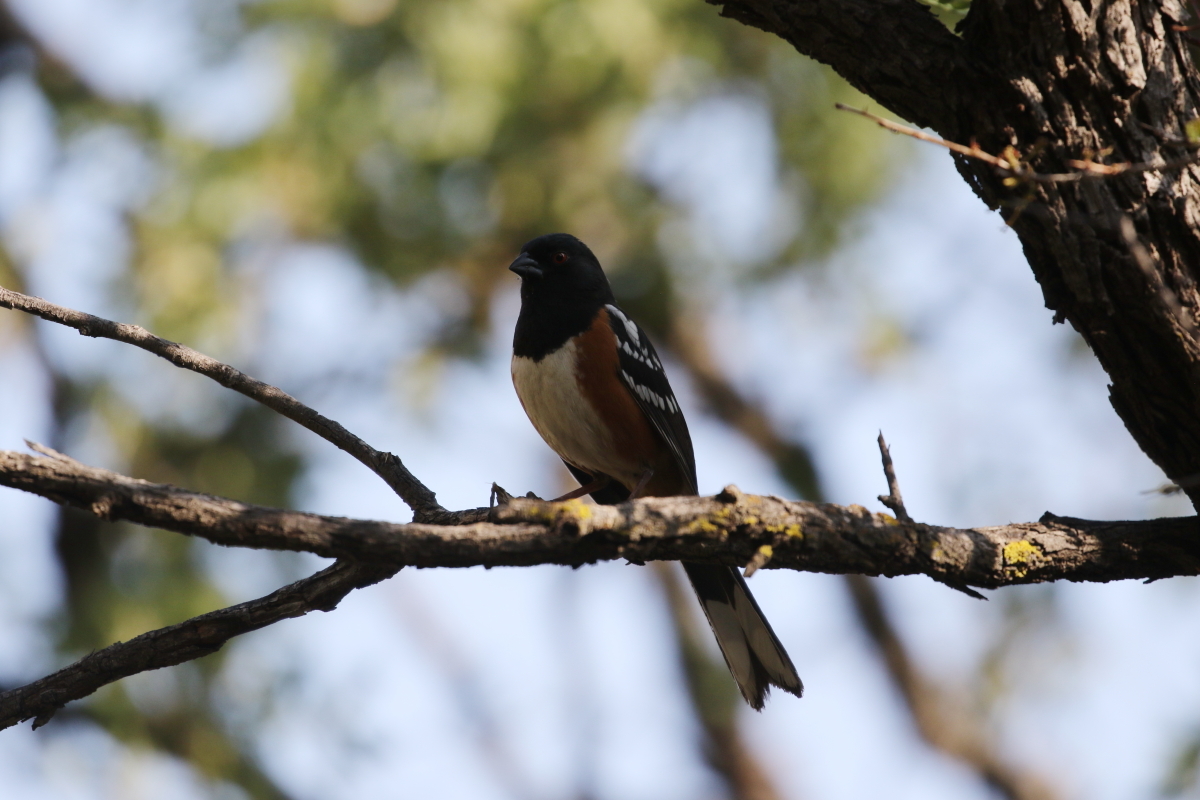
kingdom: Animalia
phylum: Chordata
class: Aves
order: Passeriformes
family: Passerellidae
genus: Pipilo
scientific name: Pipilo maculatus
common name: Spotted towhee
